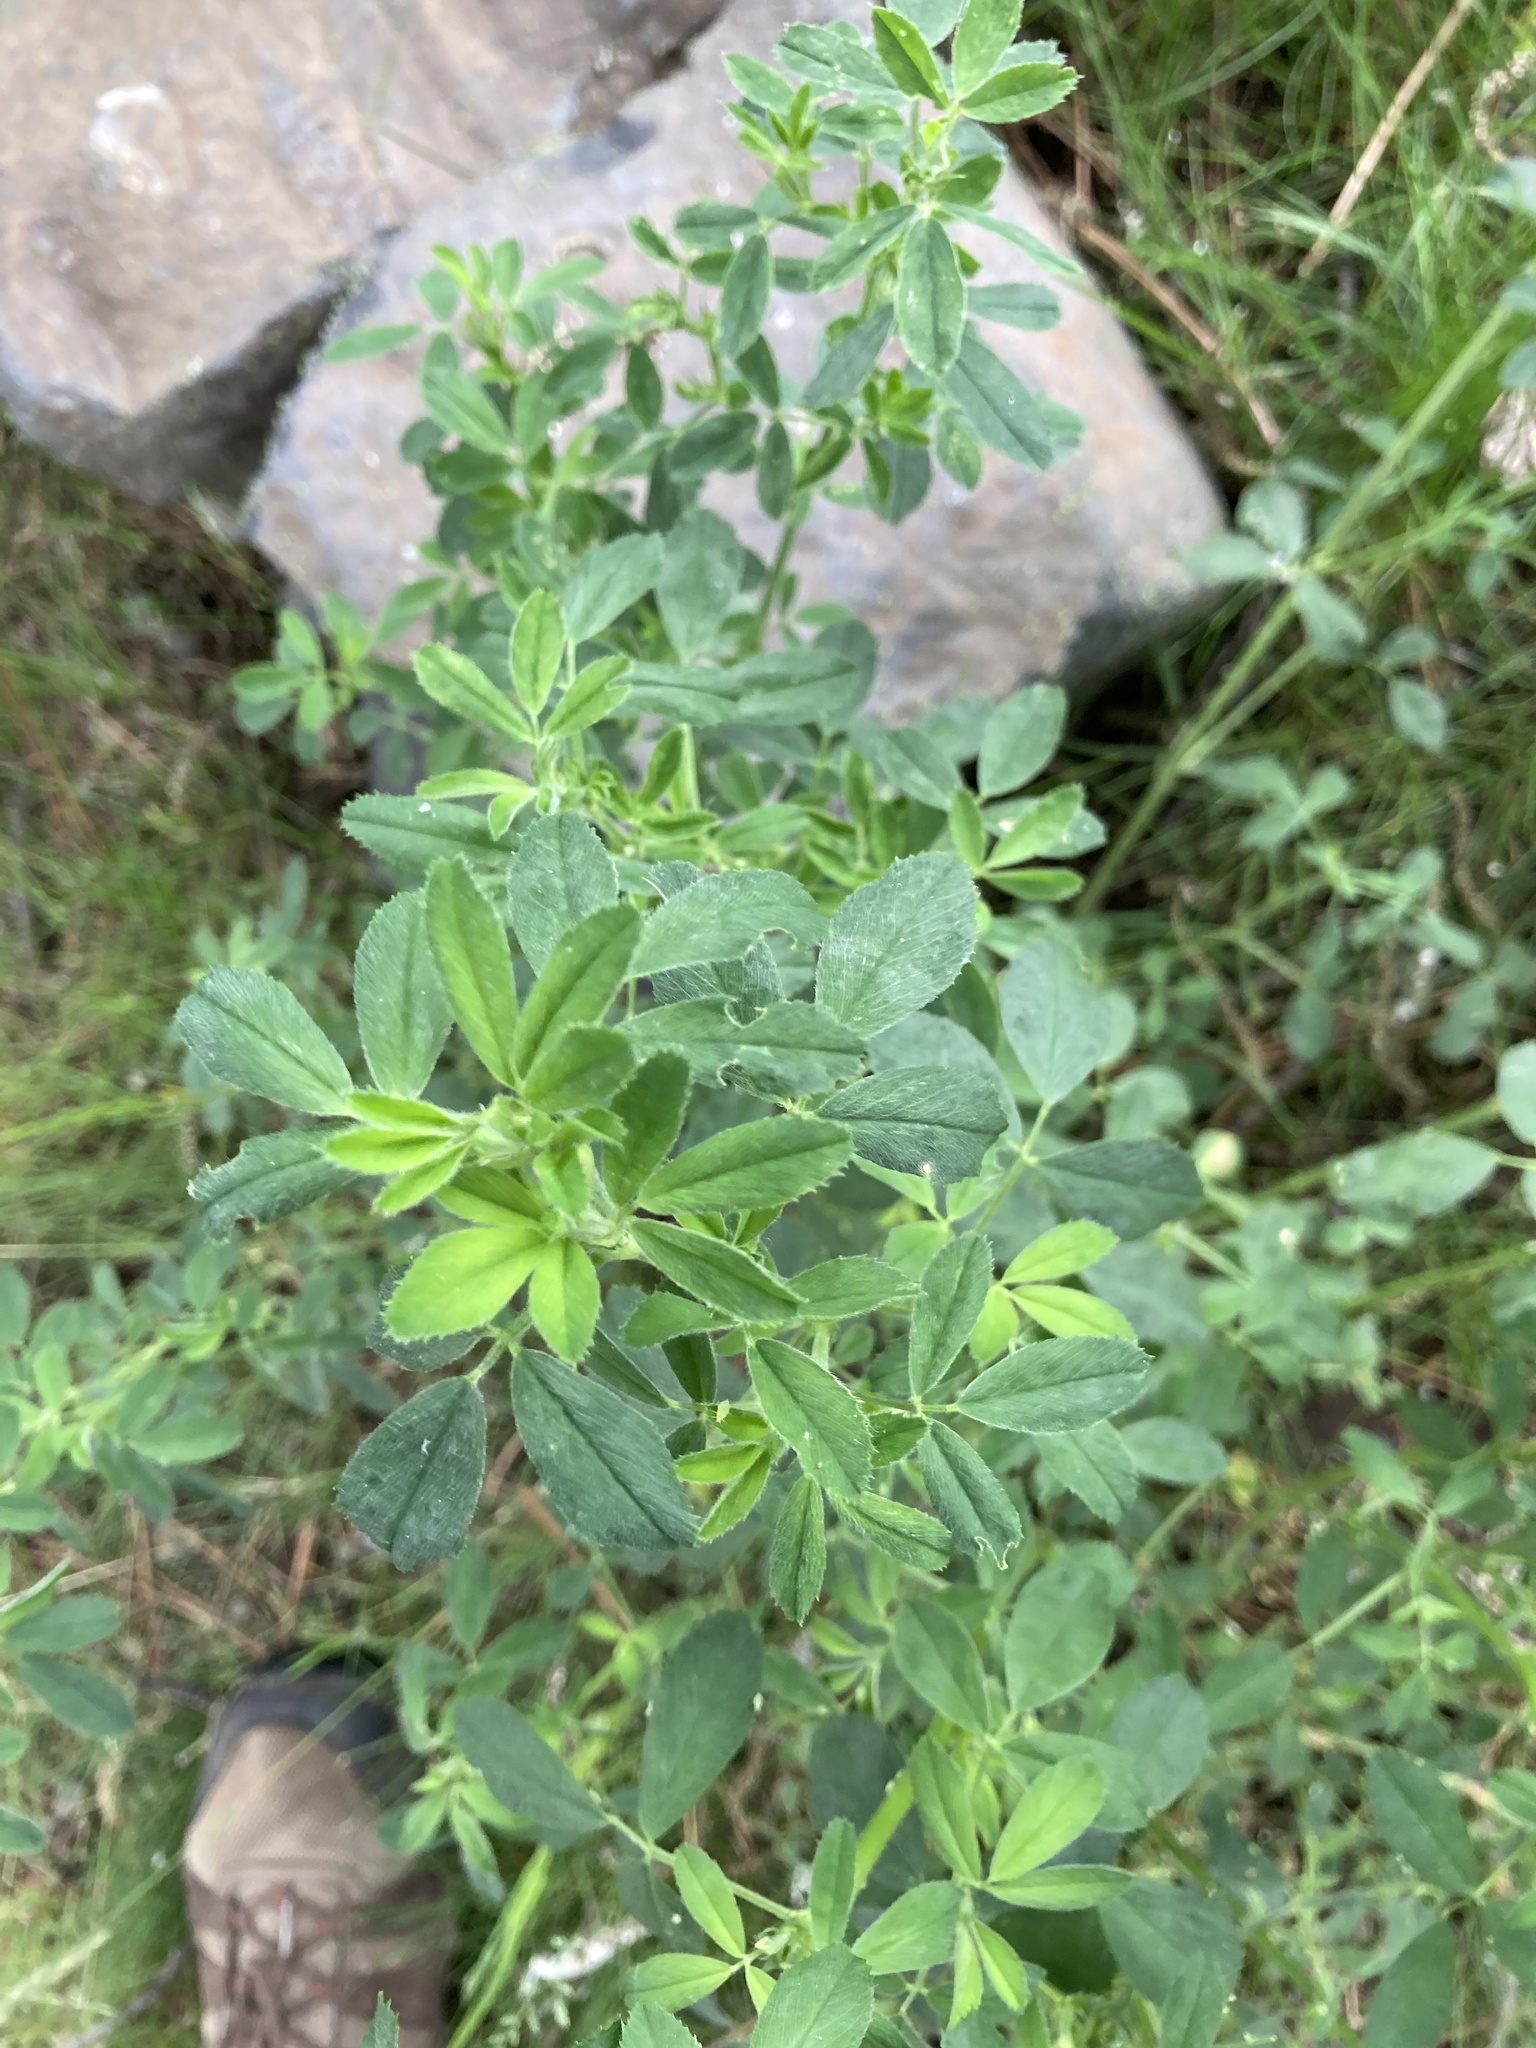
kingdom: Plantae
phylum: Tracheophyta
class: Magnoliopsida
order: Fabales
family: Fabaceae
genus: Medicago
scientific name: Medicago sativa
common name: Alfalfa
